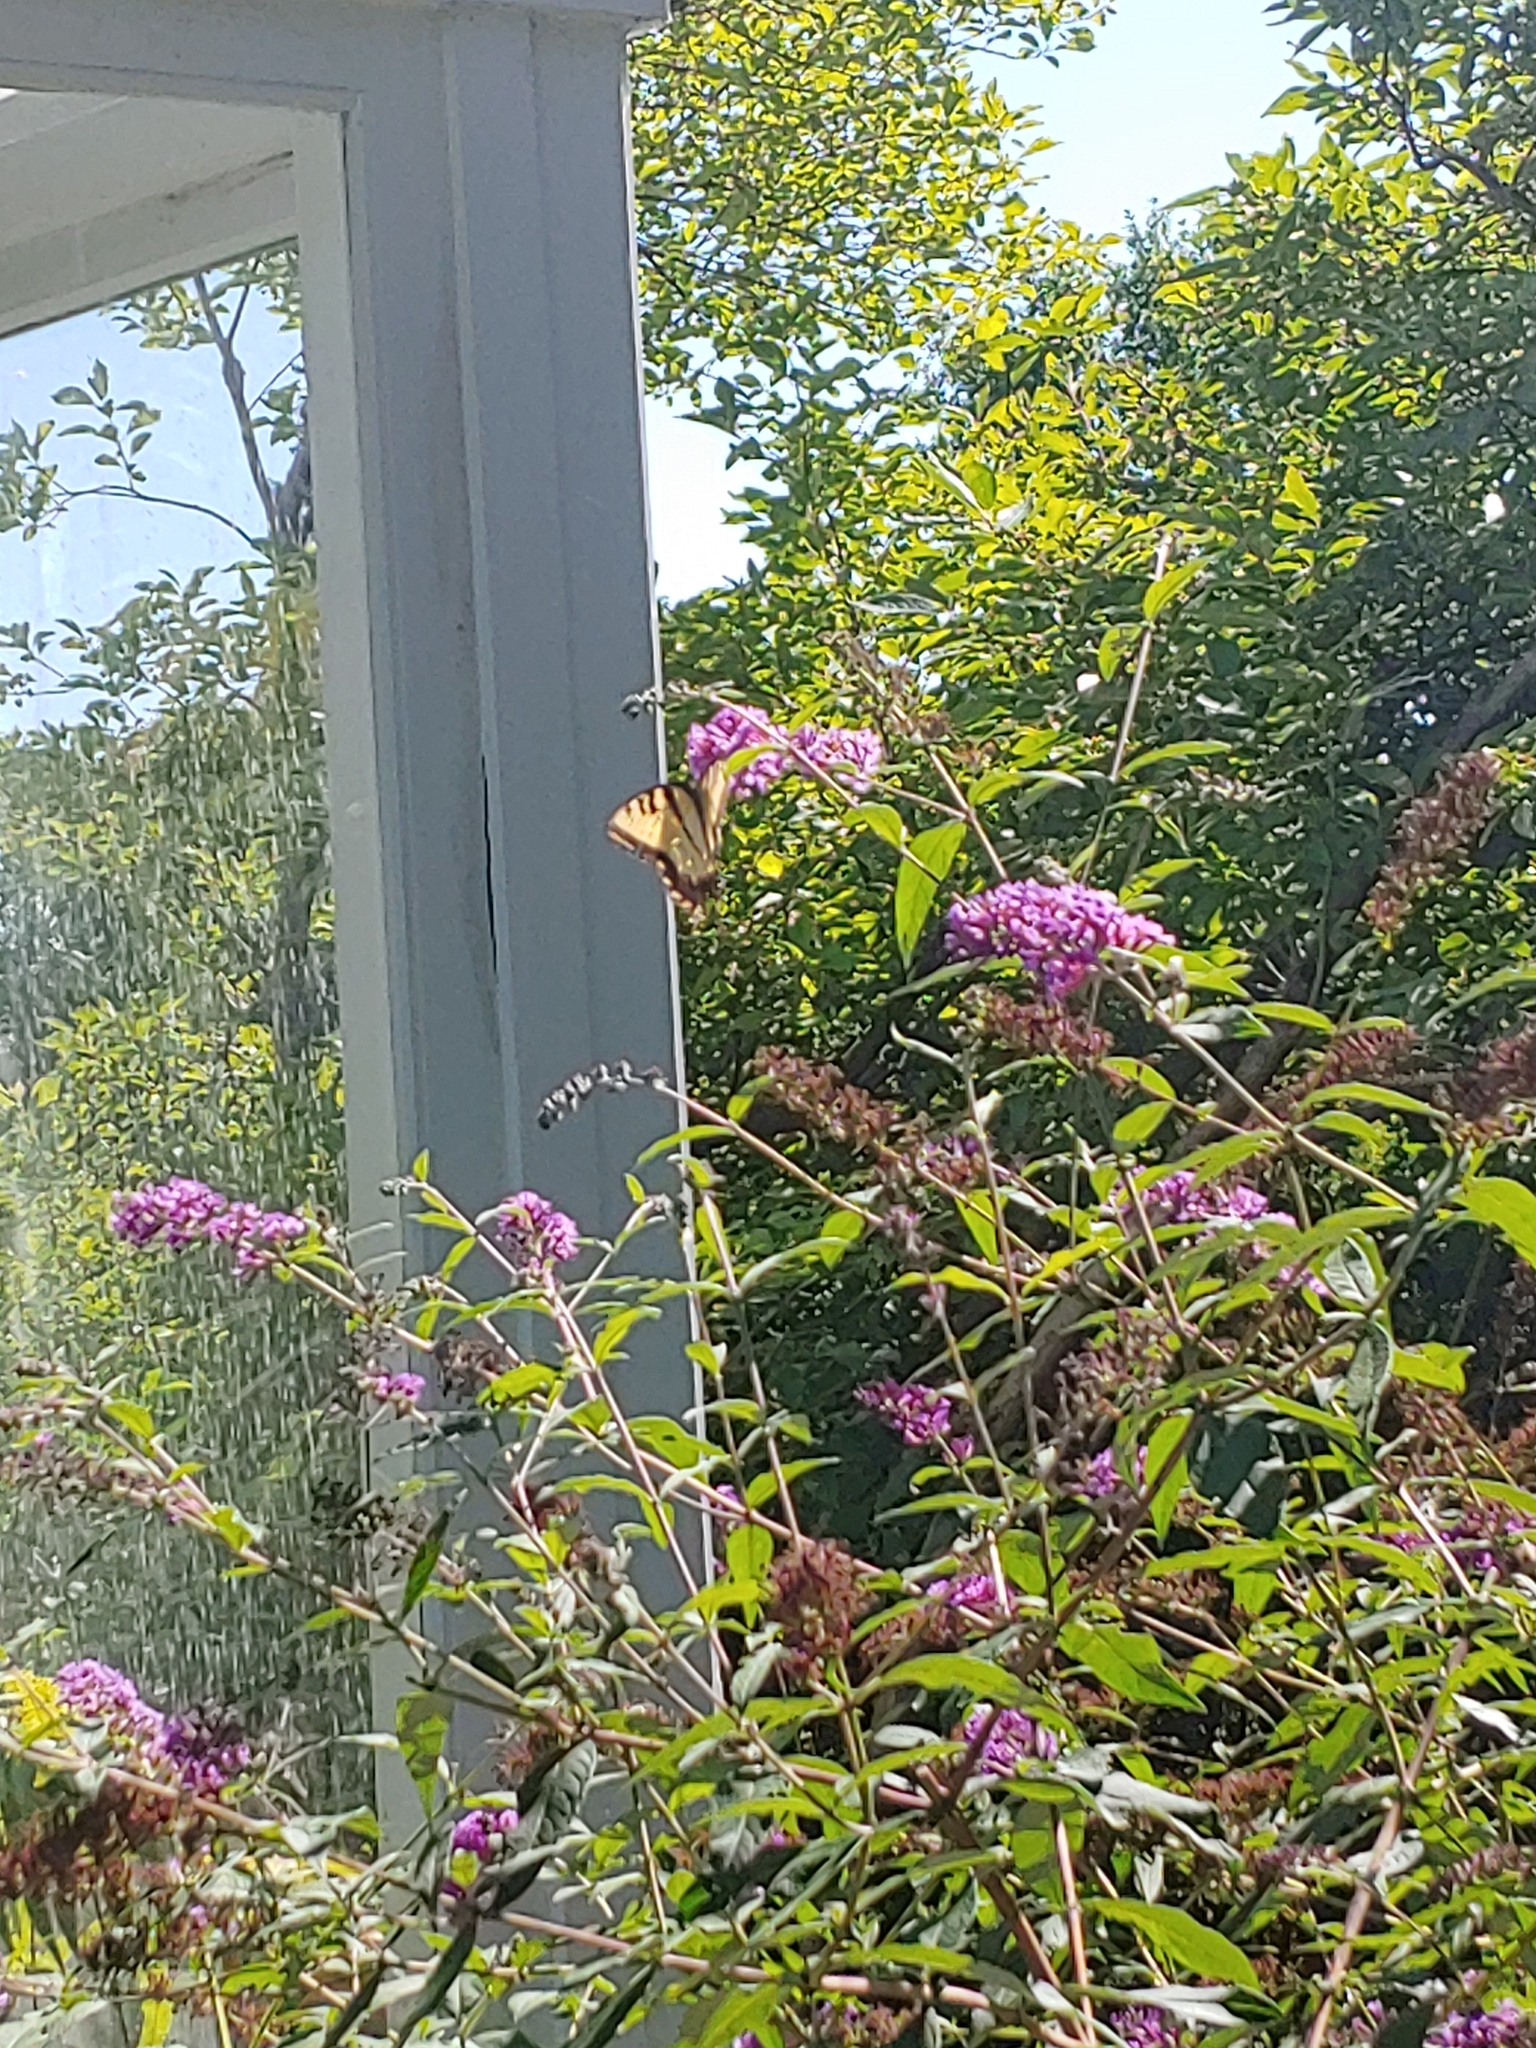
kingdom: Animalia
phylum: Arthropoda
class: Insecta
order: Lepidoptera
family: Papilionidae
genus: Papilio
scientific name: Papilio glaucus
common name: Tiger swallowtail
